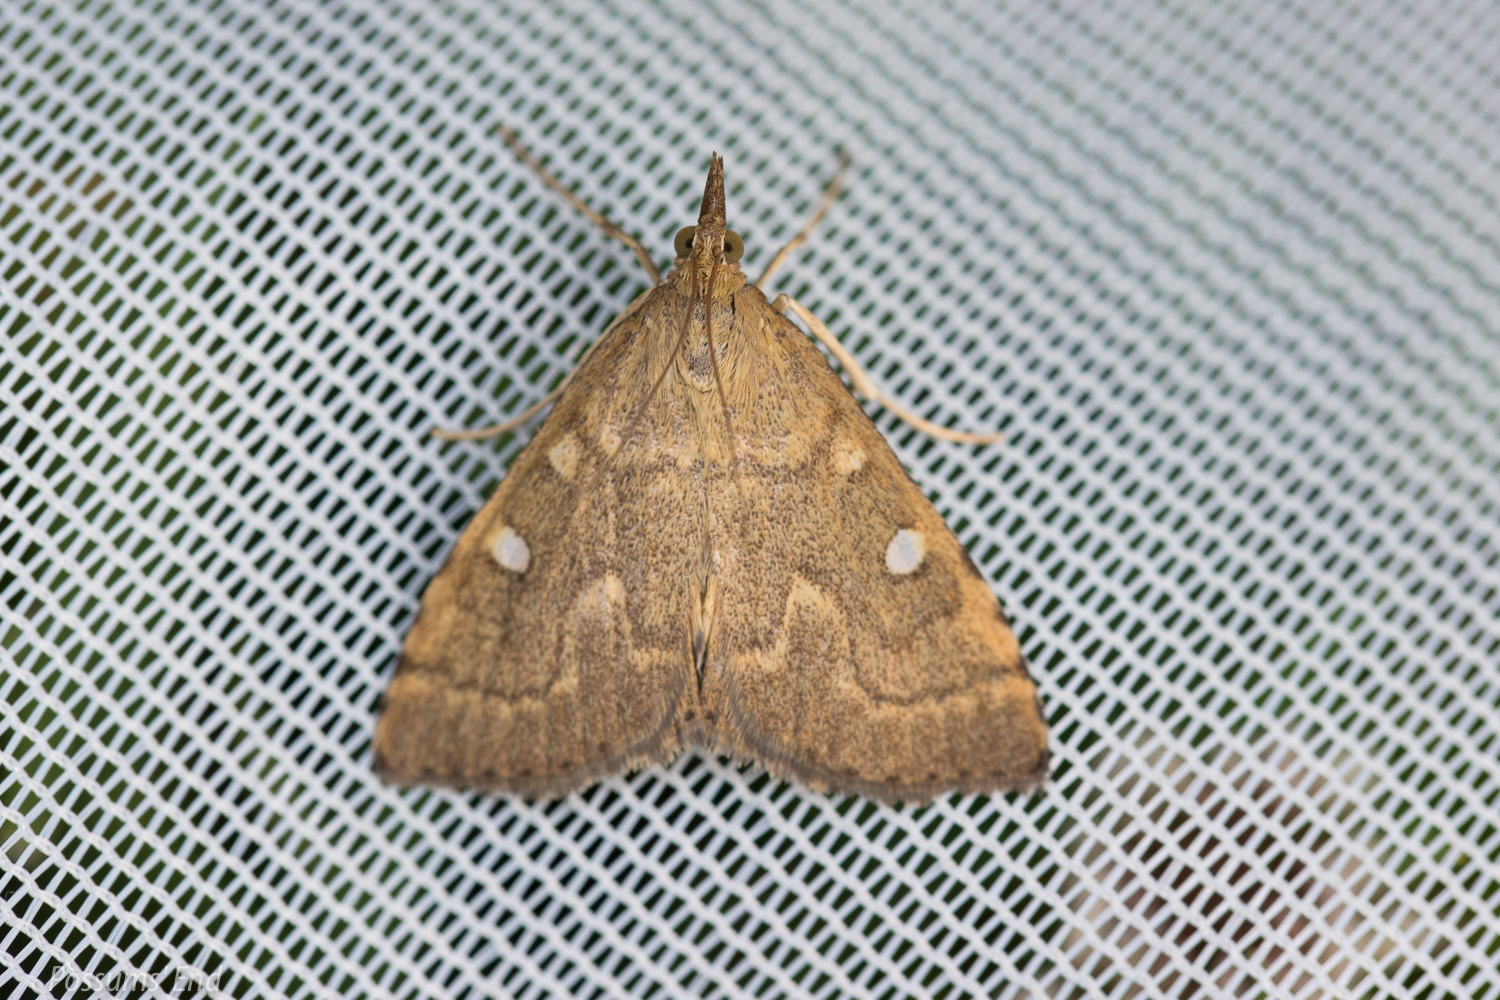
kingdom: Animalia
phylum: Arthropoda
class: Insecta
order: Lepidoptera
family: Crambidae
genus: Udea
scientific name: Udea Mnesictena marmarina
